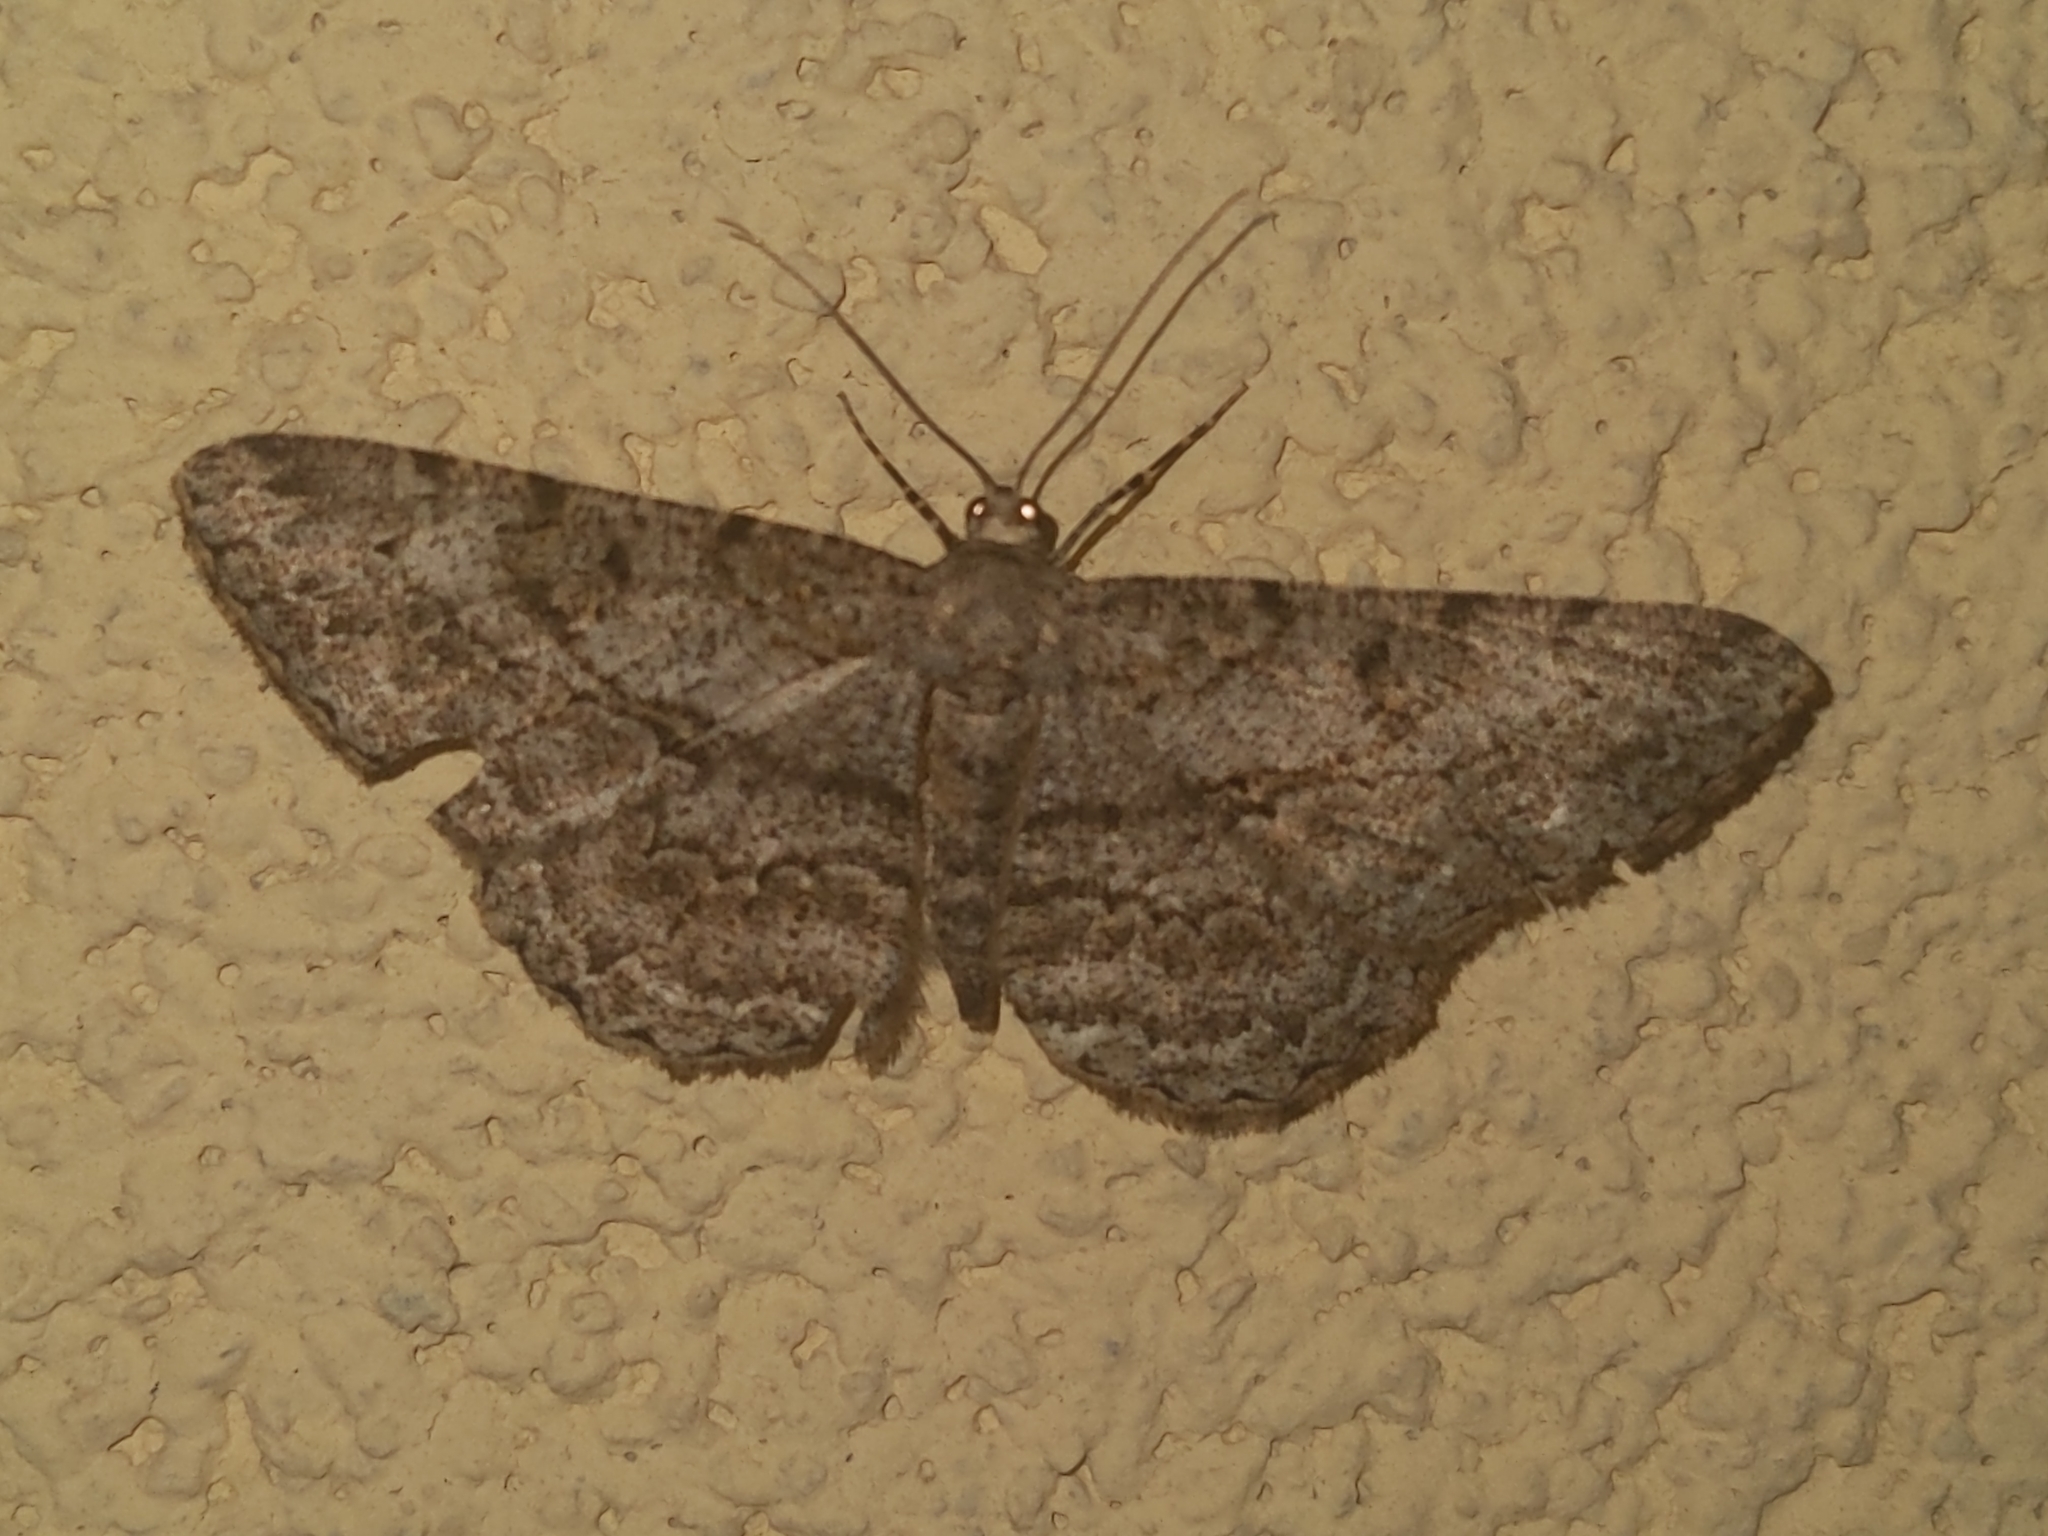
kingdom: Animalia
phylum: Arthropoda
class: Insecta
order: Lepidoptera
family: Geometridae
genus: Peribatodes
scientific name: Peribatodes rhomboidaria
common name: Willow beauty
